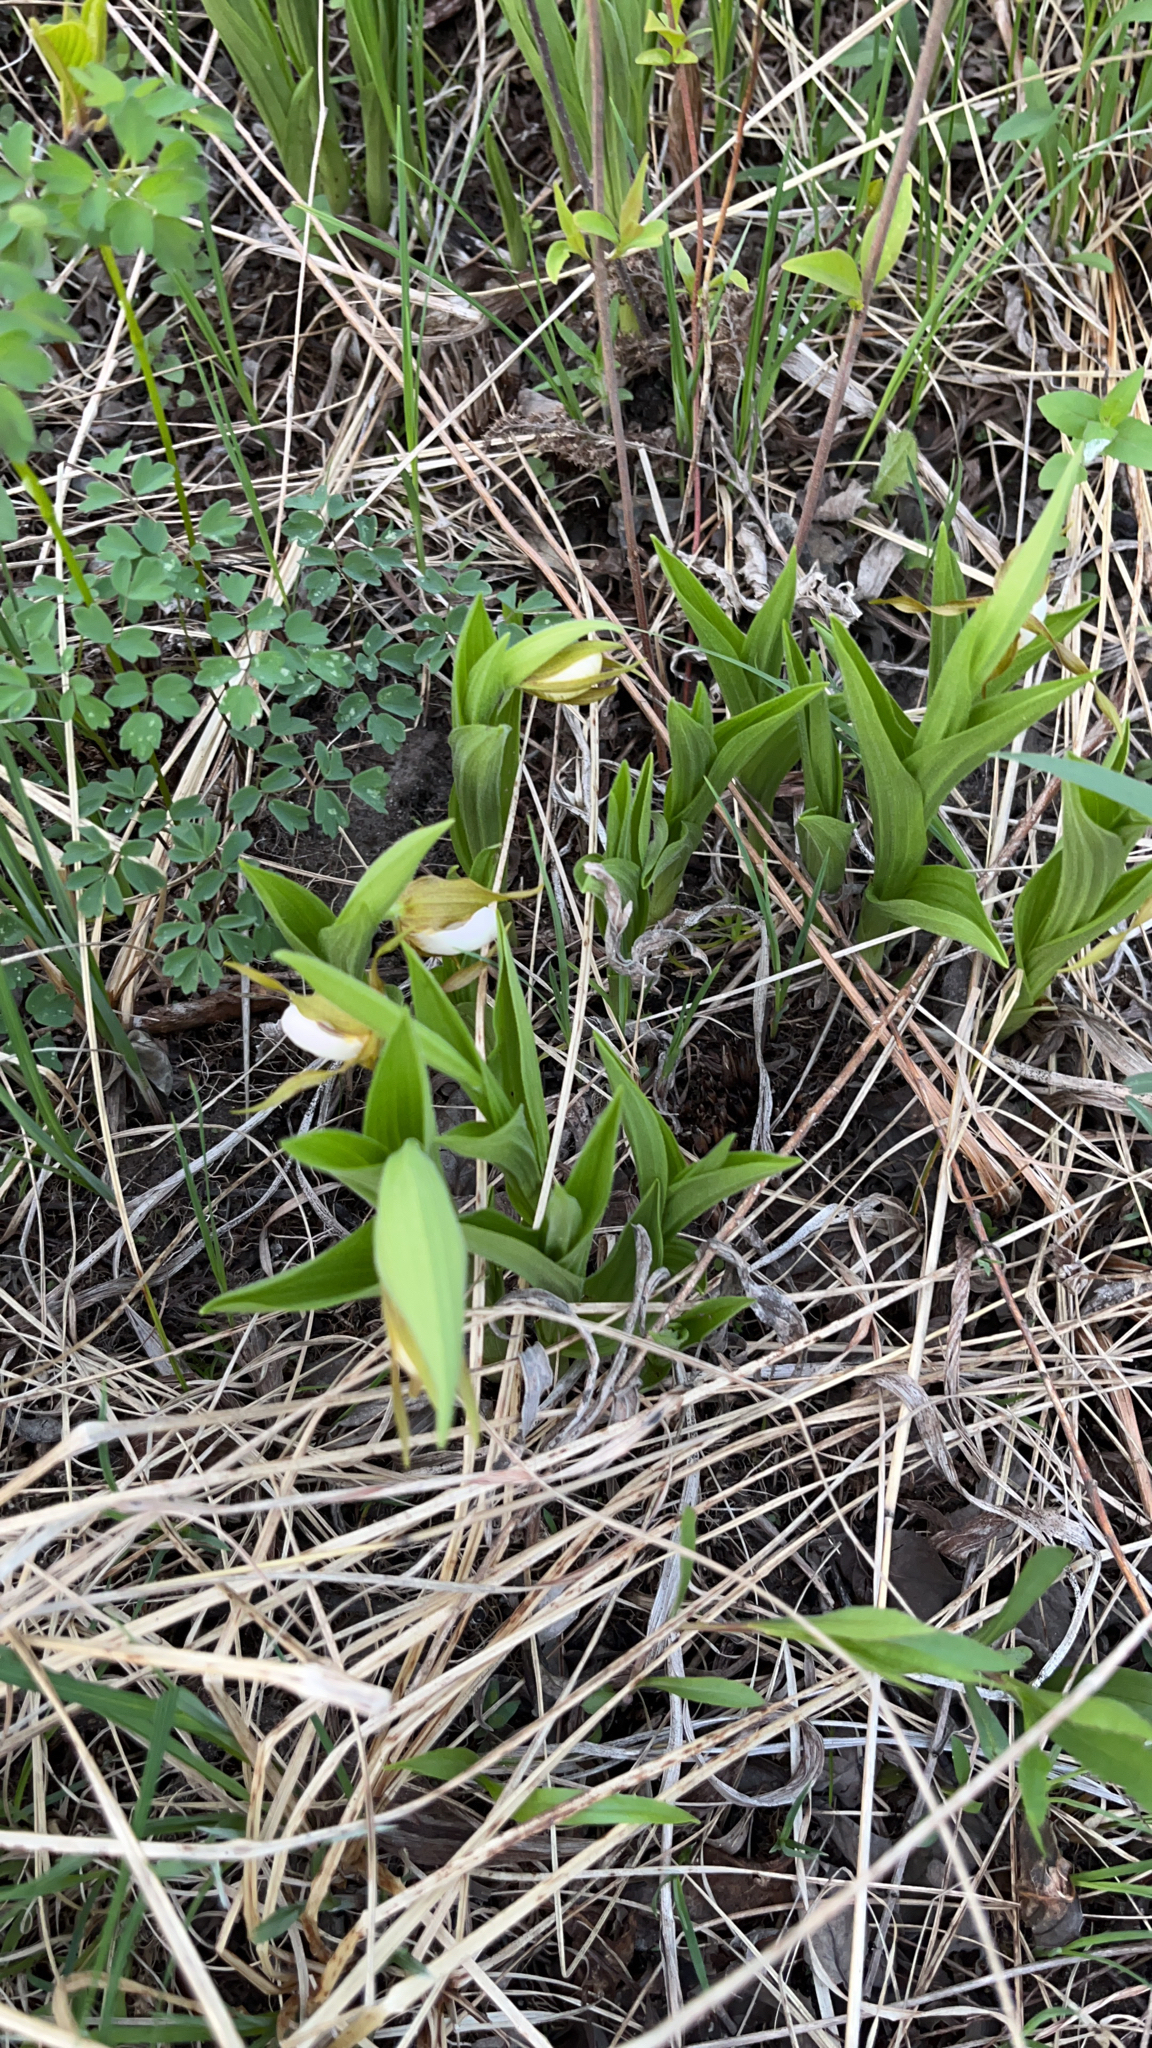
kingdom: Plantae
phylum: Tracheophyta
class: Liliopsida
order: Asparagales
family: Orchidaceae
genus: Cypripedium
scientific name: Cypripedium candidum
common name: White lady's-slipper
